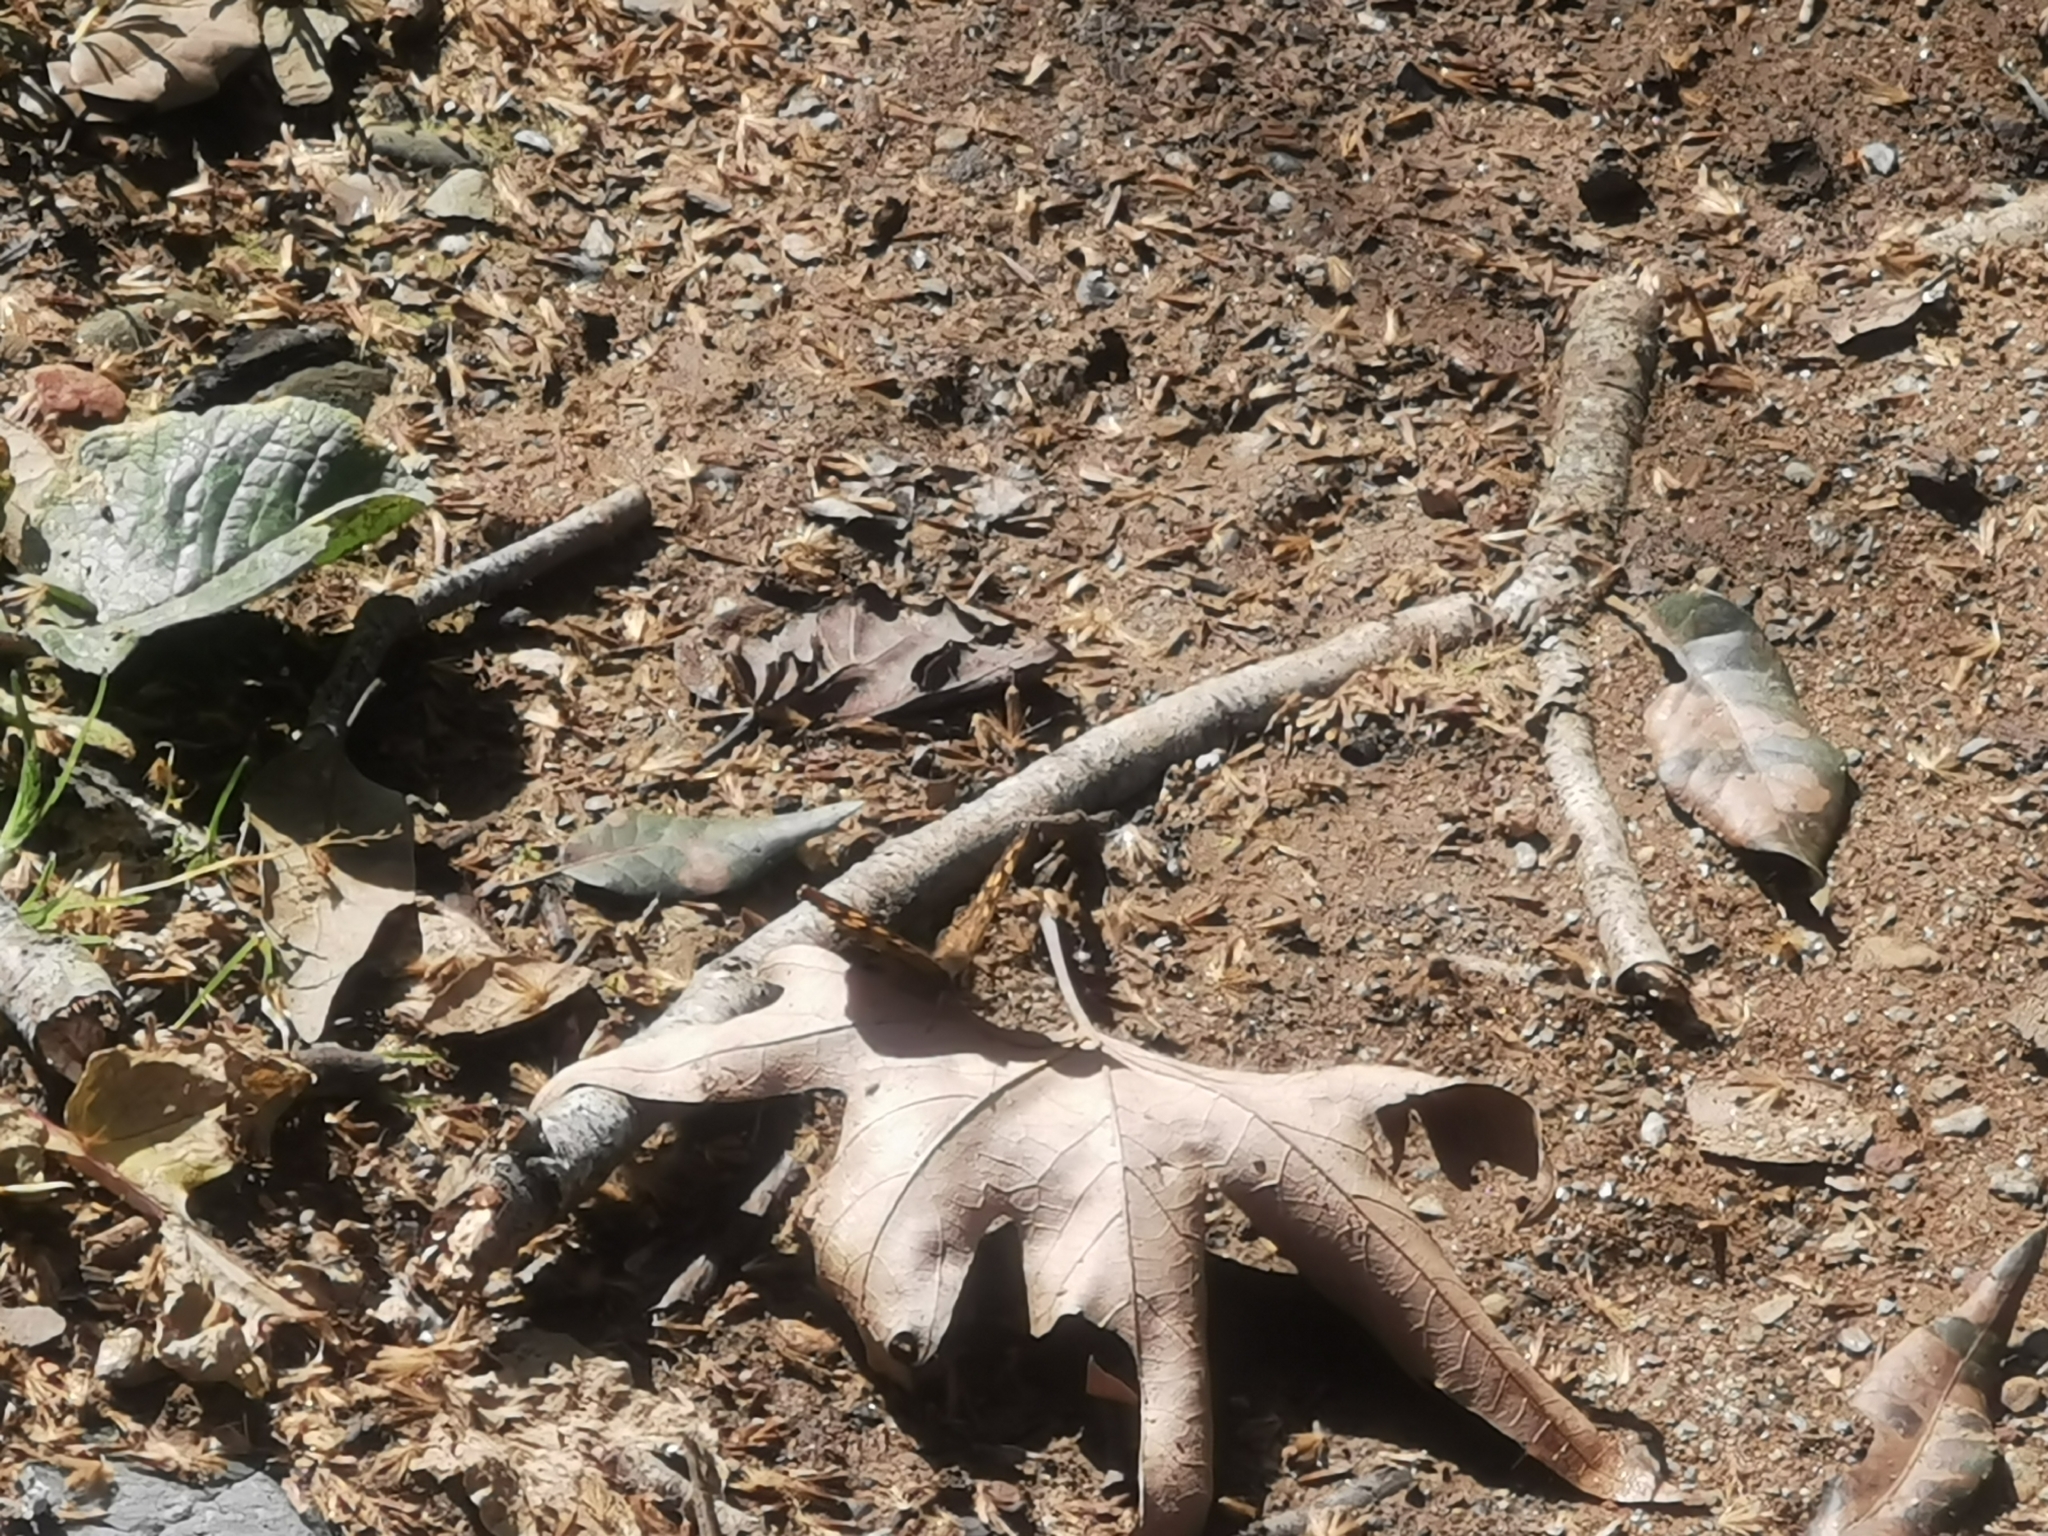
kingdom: Animalia
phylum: Arthropoda
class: Insecta
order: Lepidoptera
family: Nymphalidae
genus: Pararge
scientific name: Pararge aegeria
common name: Speckled wood
